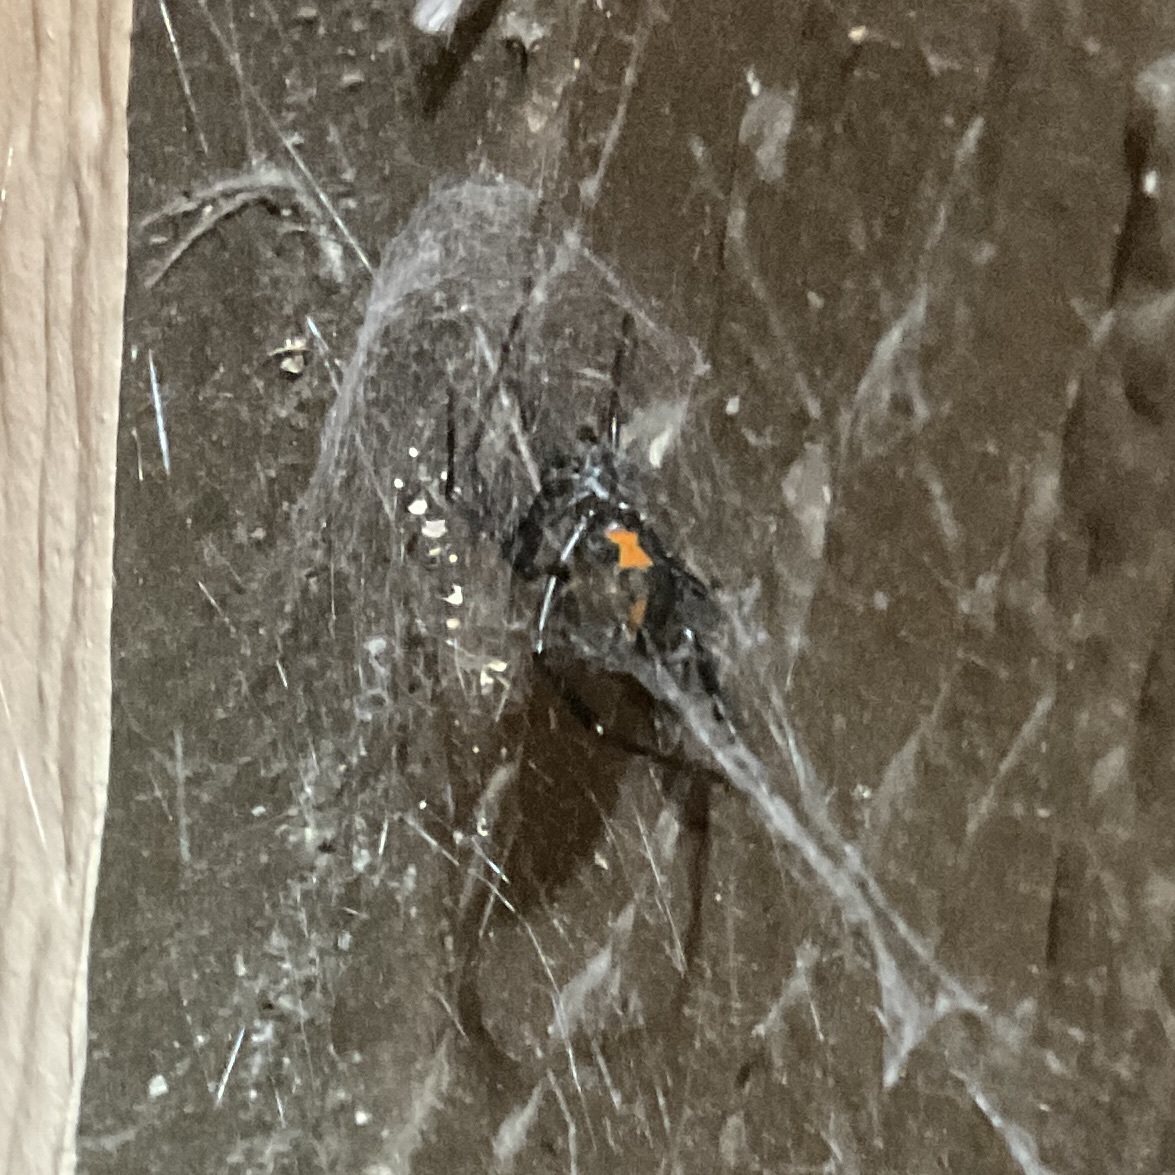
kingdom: Animalia
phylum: Arthropoda
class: Arachnida
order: Araneae
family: Theridiidae
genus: Latrodectus
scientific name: Latrodectus hesperus
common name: Western black widow
